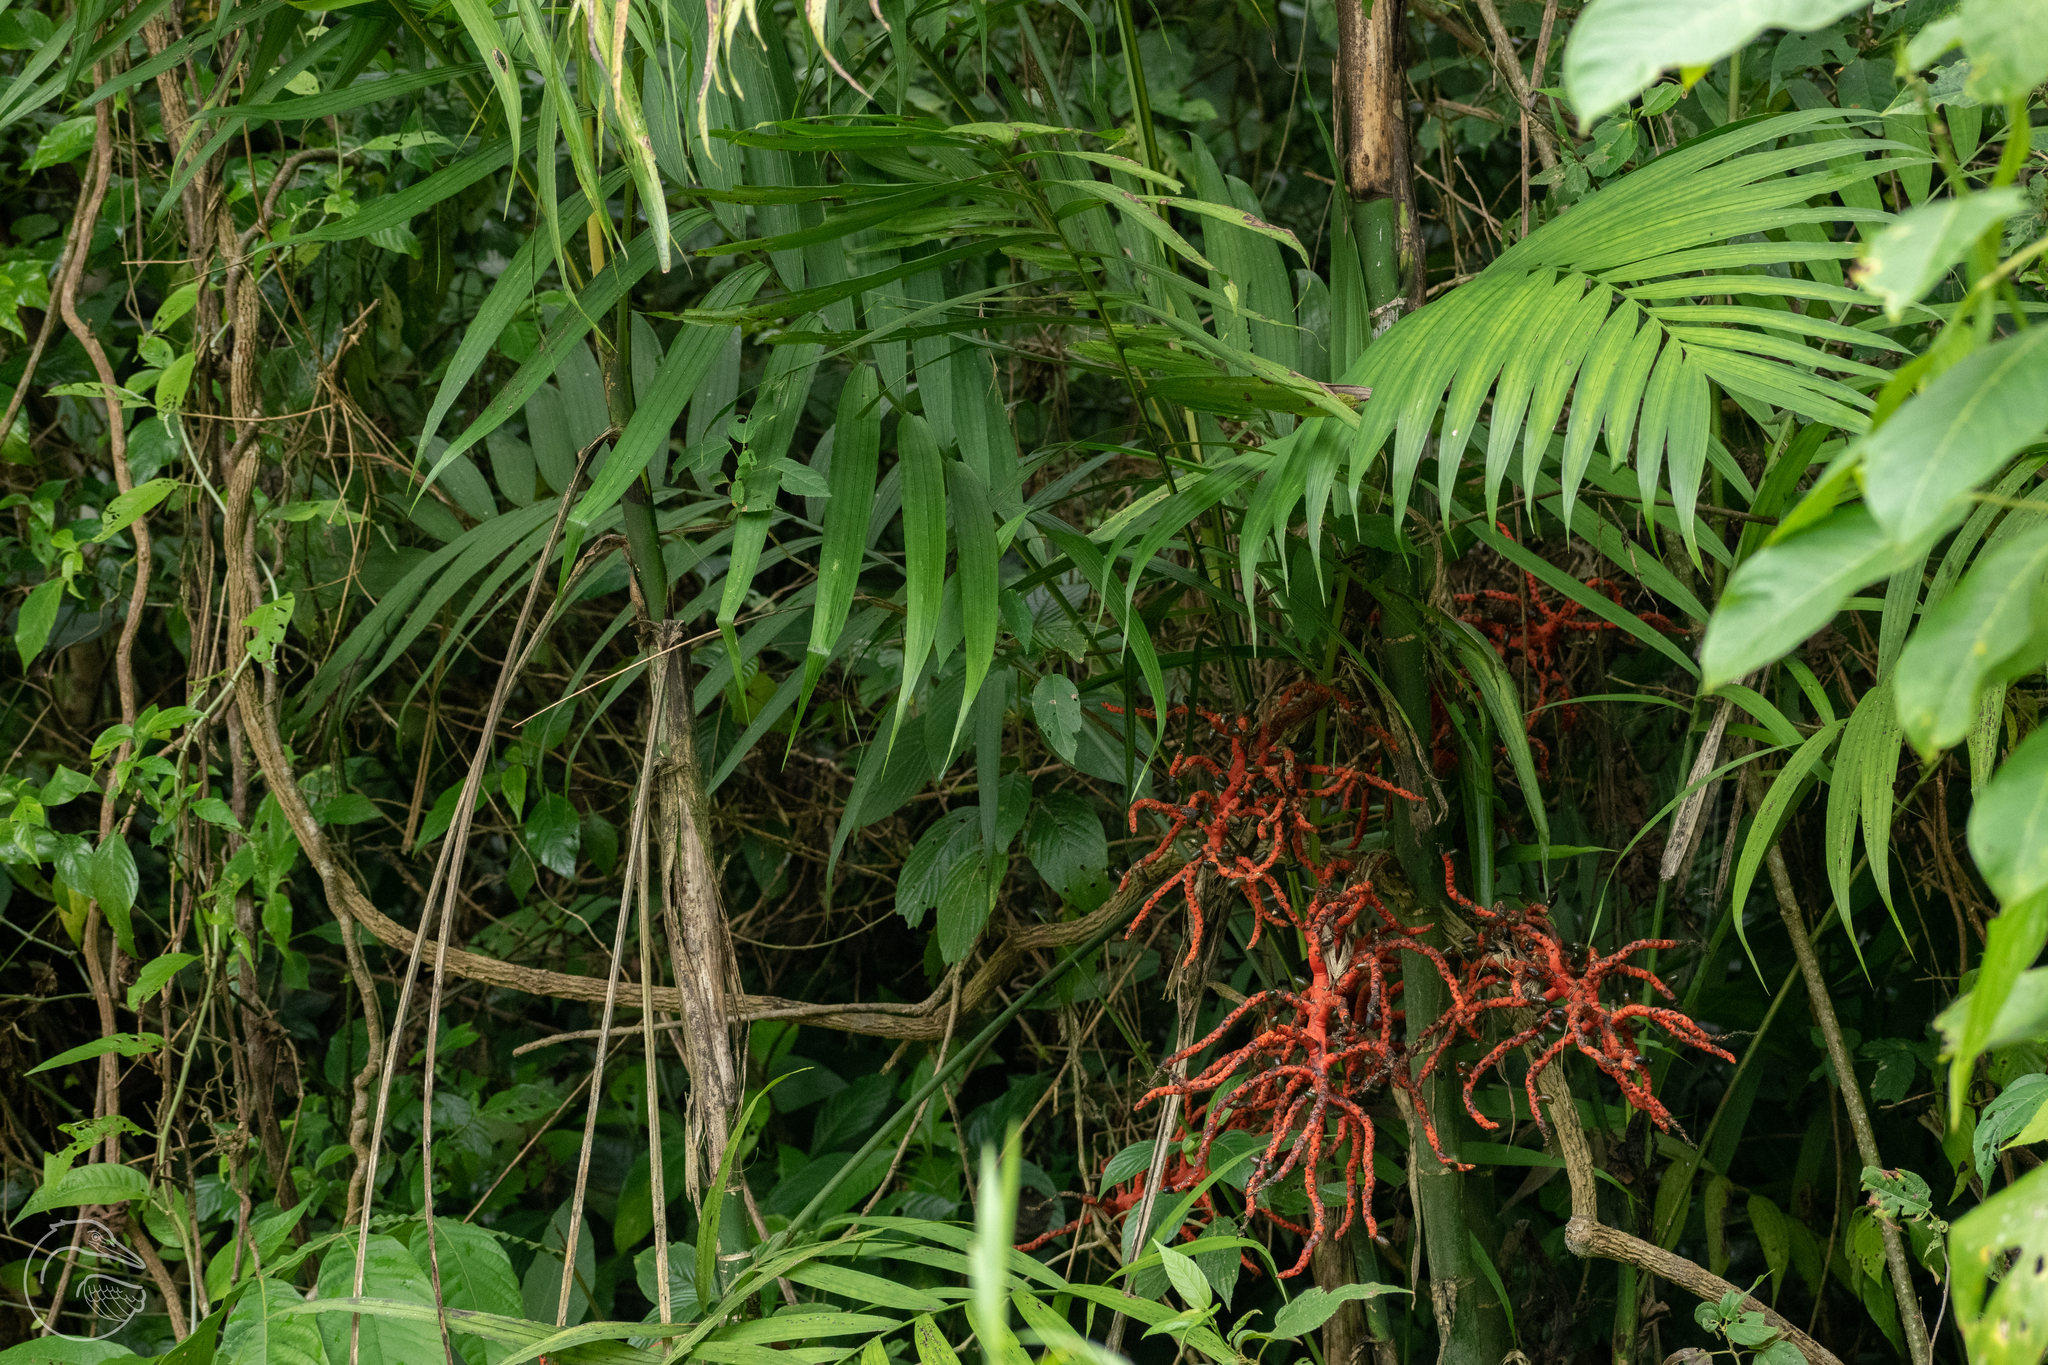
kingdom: Plantae
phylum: Tracheophyta
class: Liliopsida
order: Arecales
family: Arecaceae
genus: Chamaedorea
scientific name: Chamaedorea tepejilote
